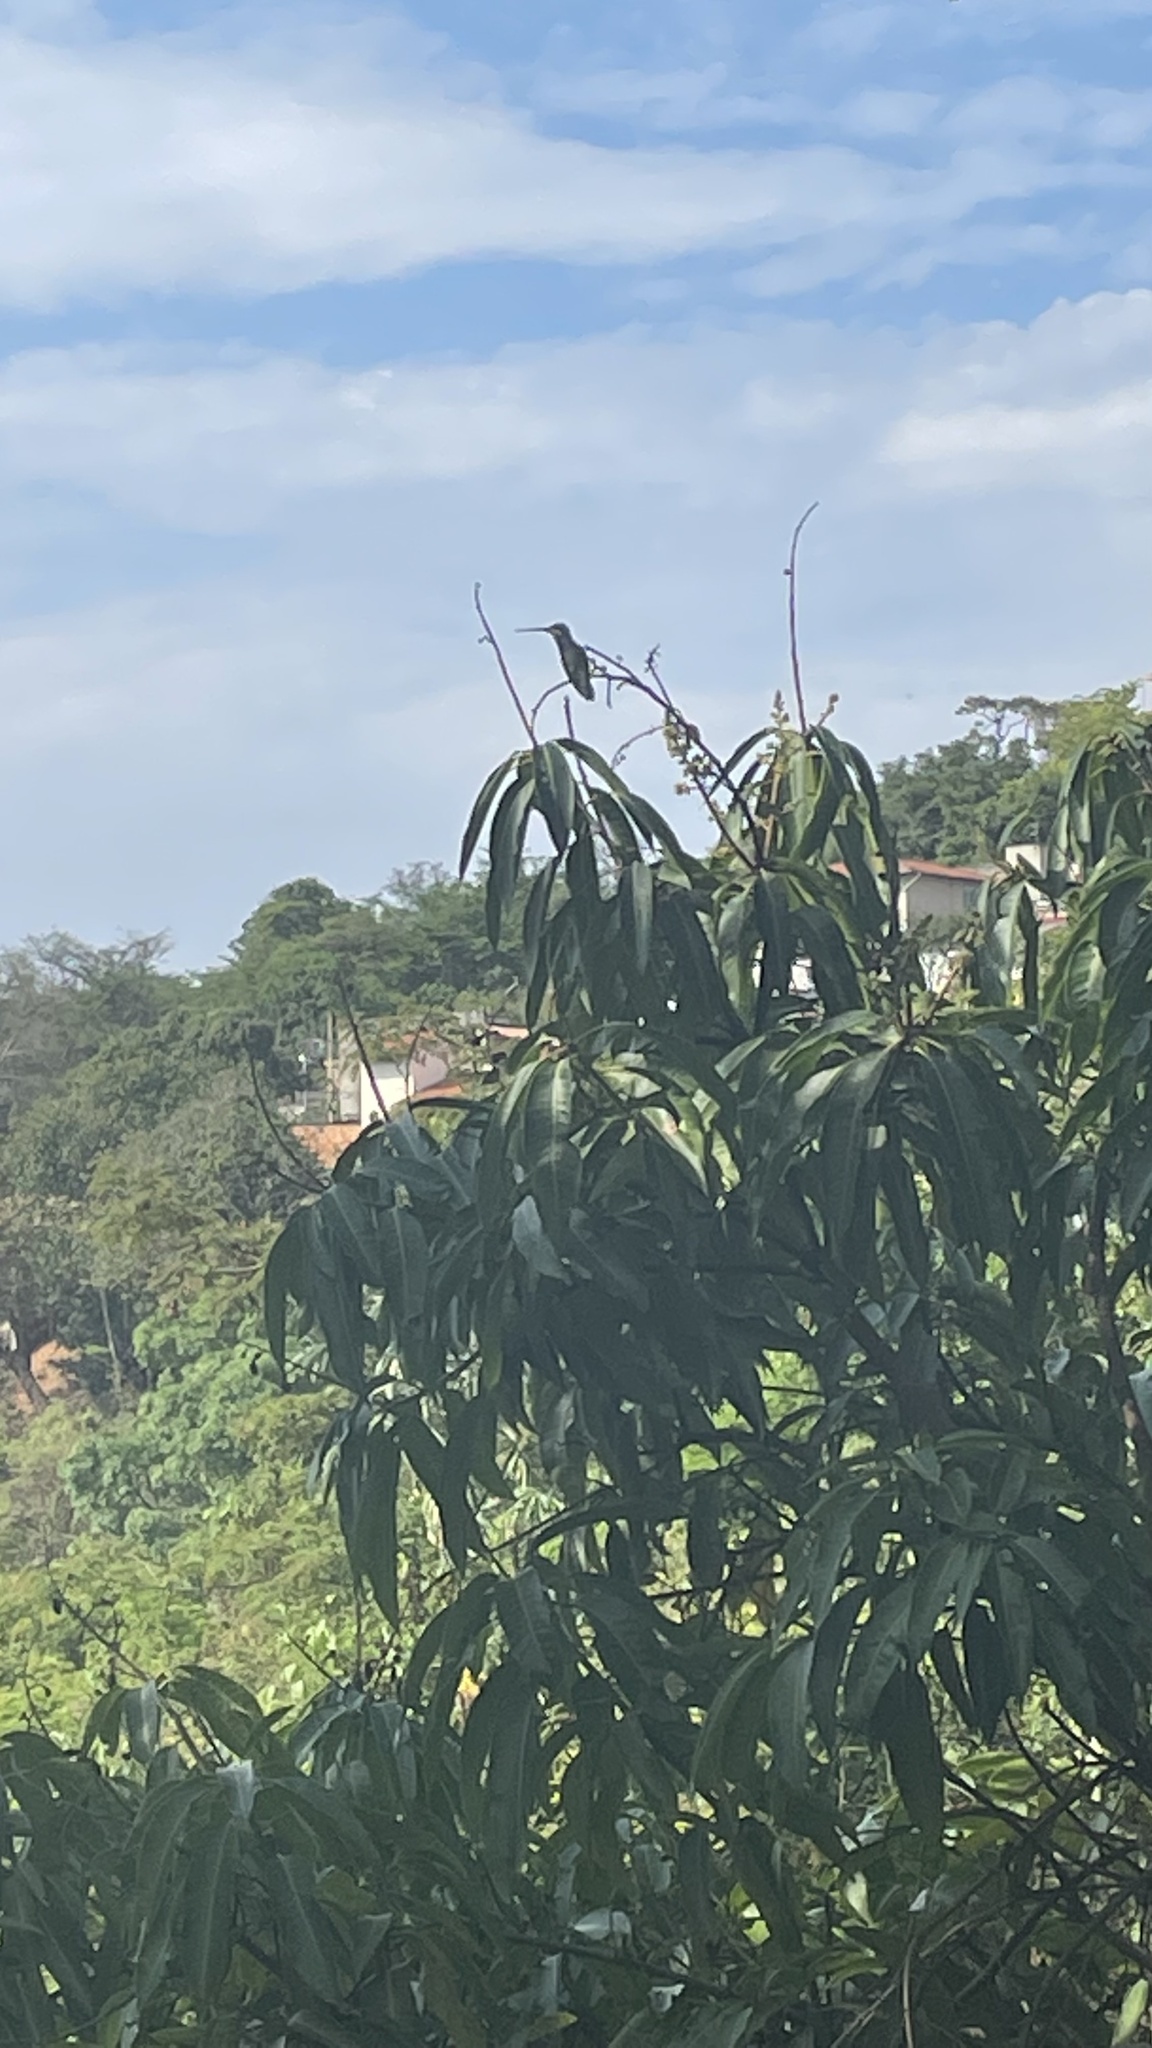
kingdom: Animalia
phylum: Chordata
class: Aves
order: Apodiformes
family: Trochilidae
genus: Heliomaster
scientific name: Heliomaster squamosus
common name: Stripe-breasted starthroat
